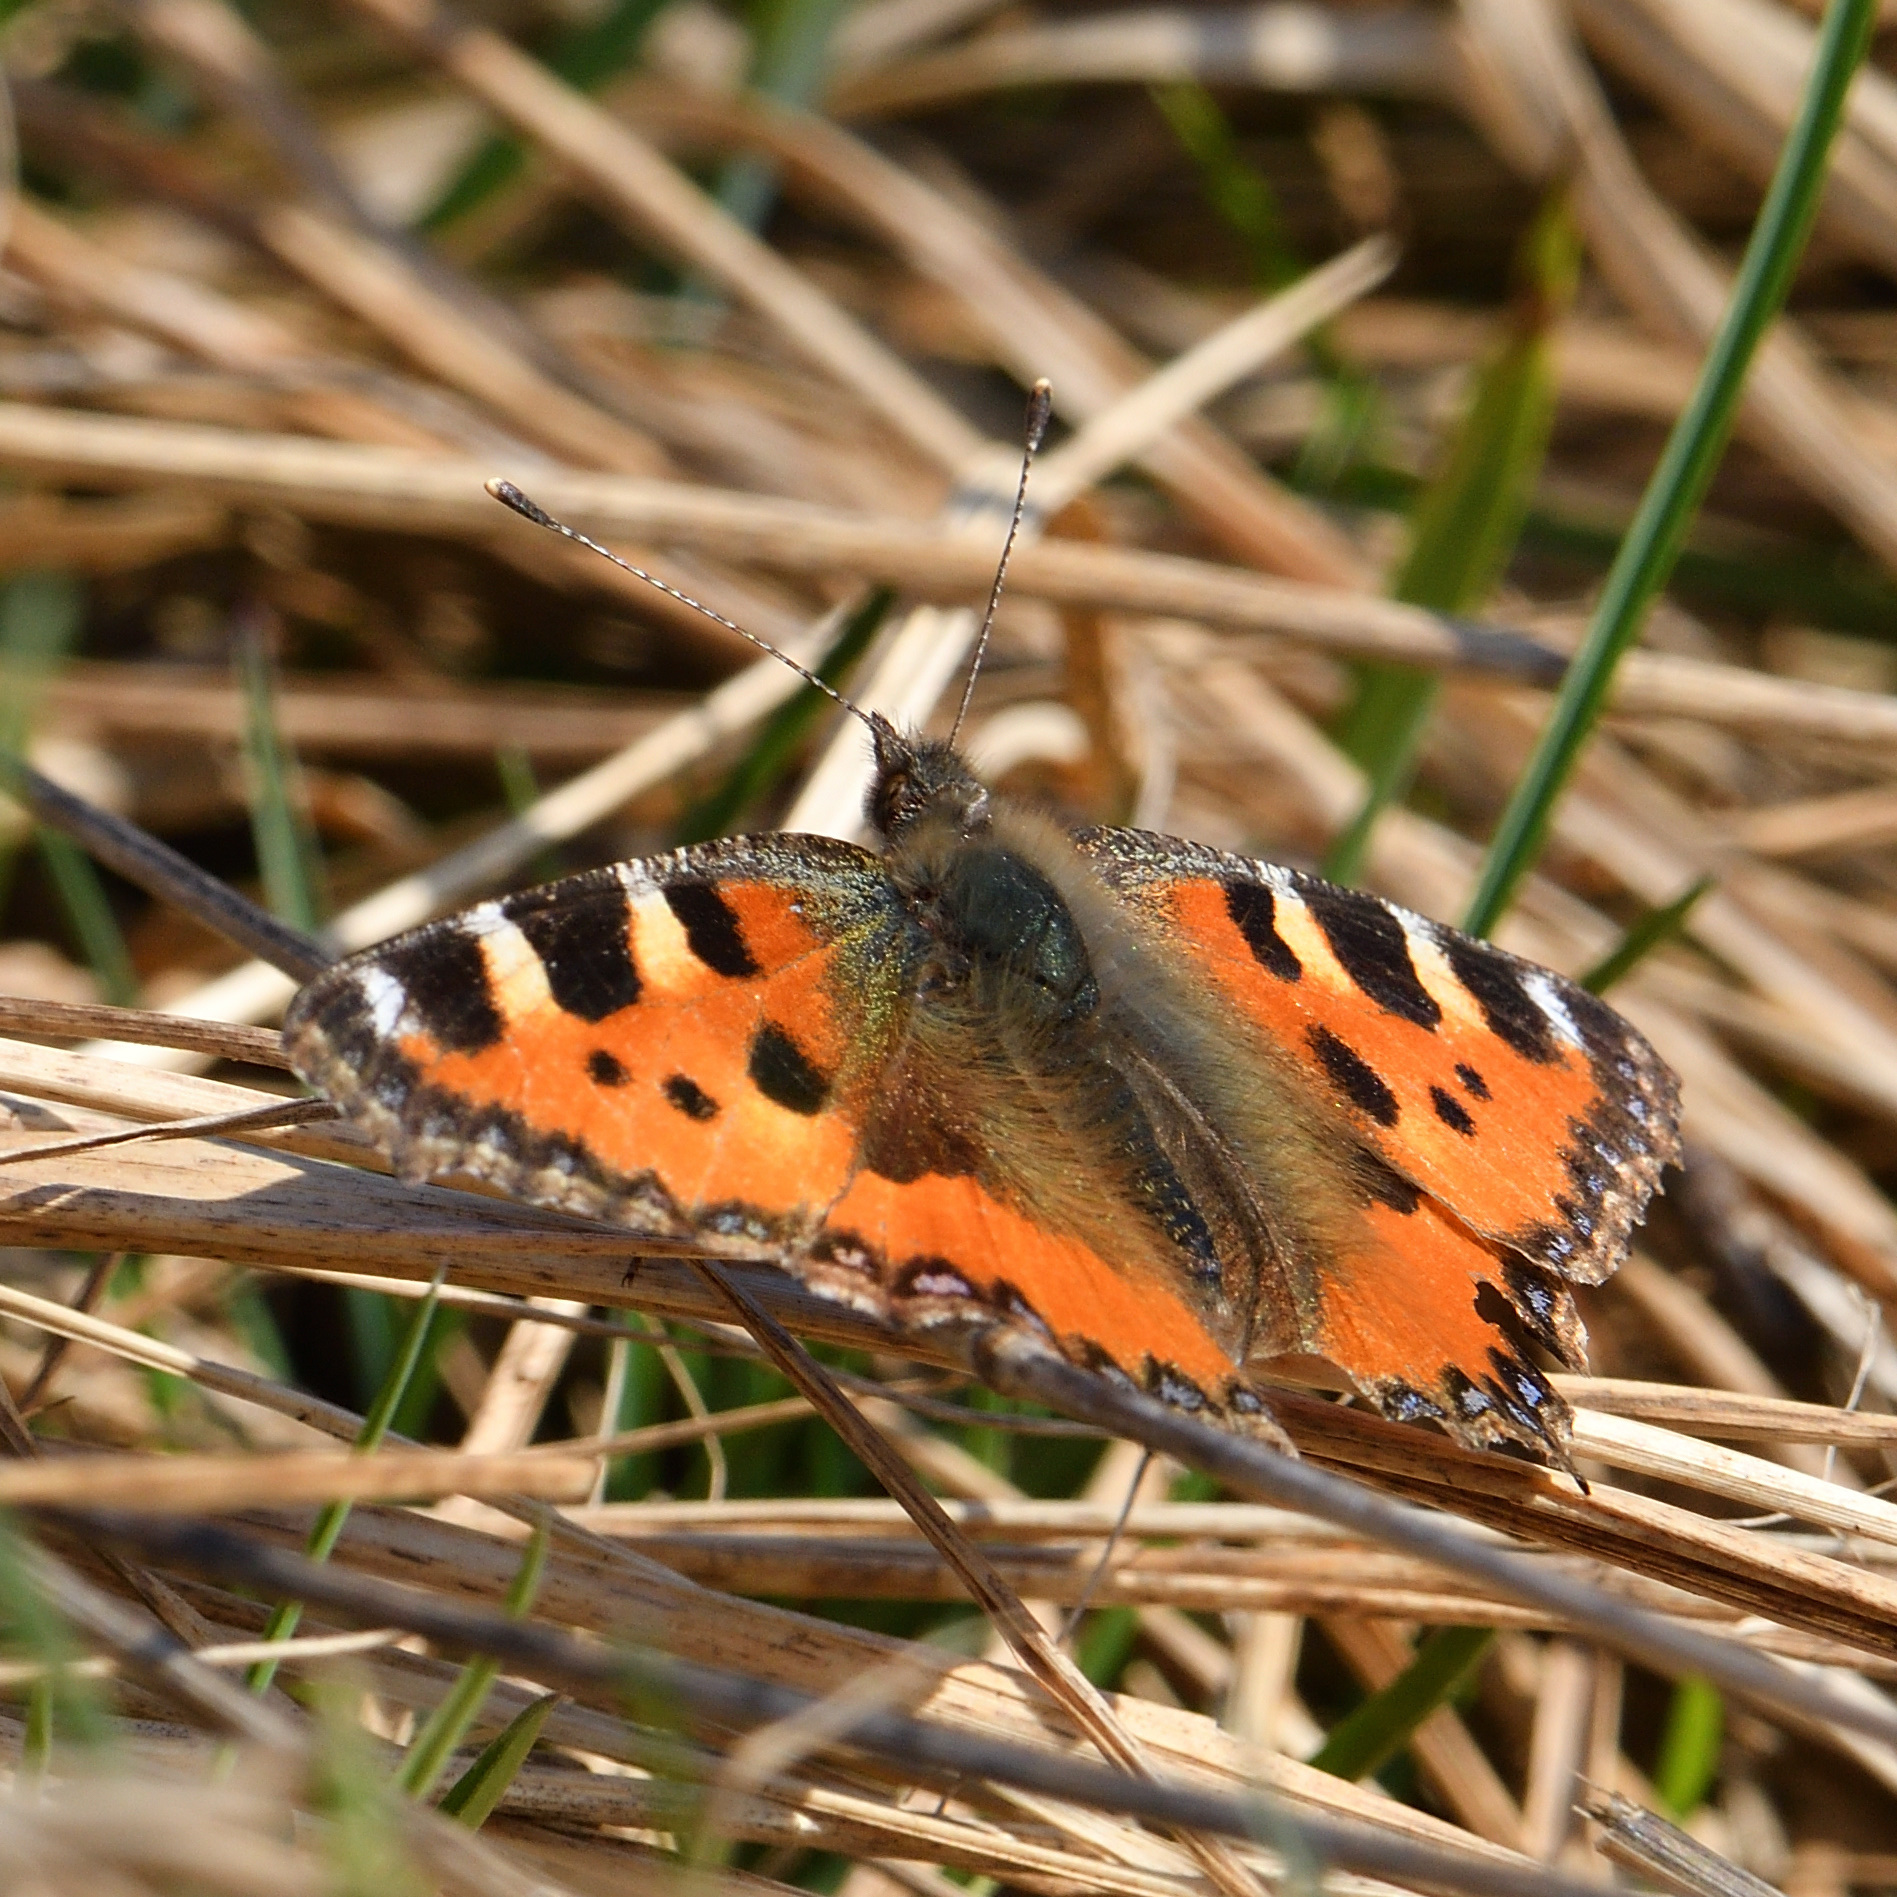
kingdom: Animalia
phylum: Arthropoda
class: Insecta
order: Lepidoptera
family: Nymphalidae
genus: Aglais
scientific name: Aglais urticae
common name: Small tortoiseshell
